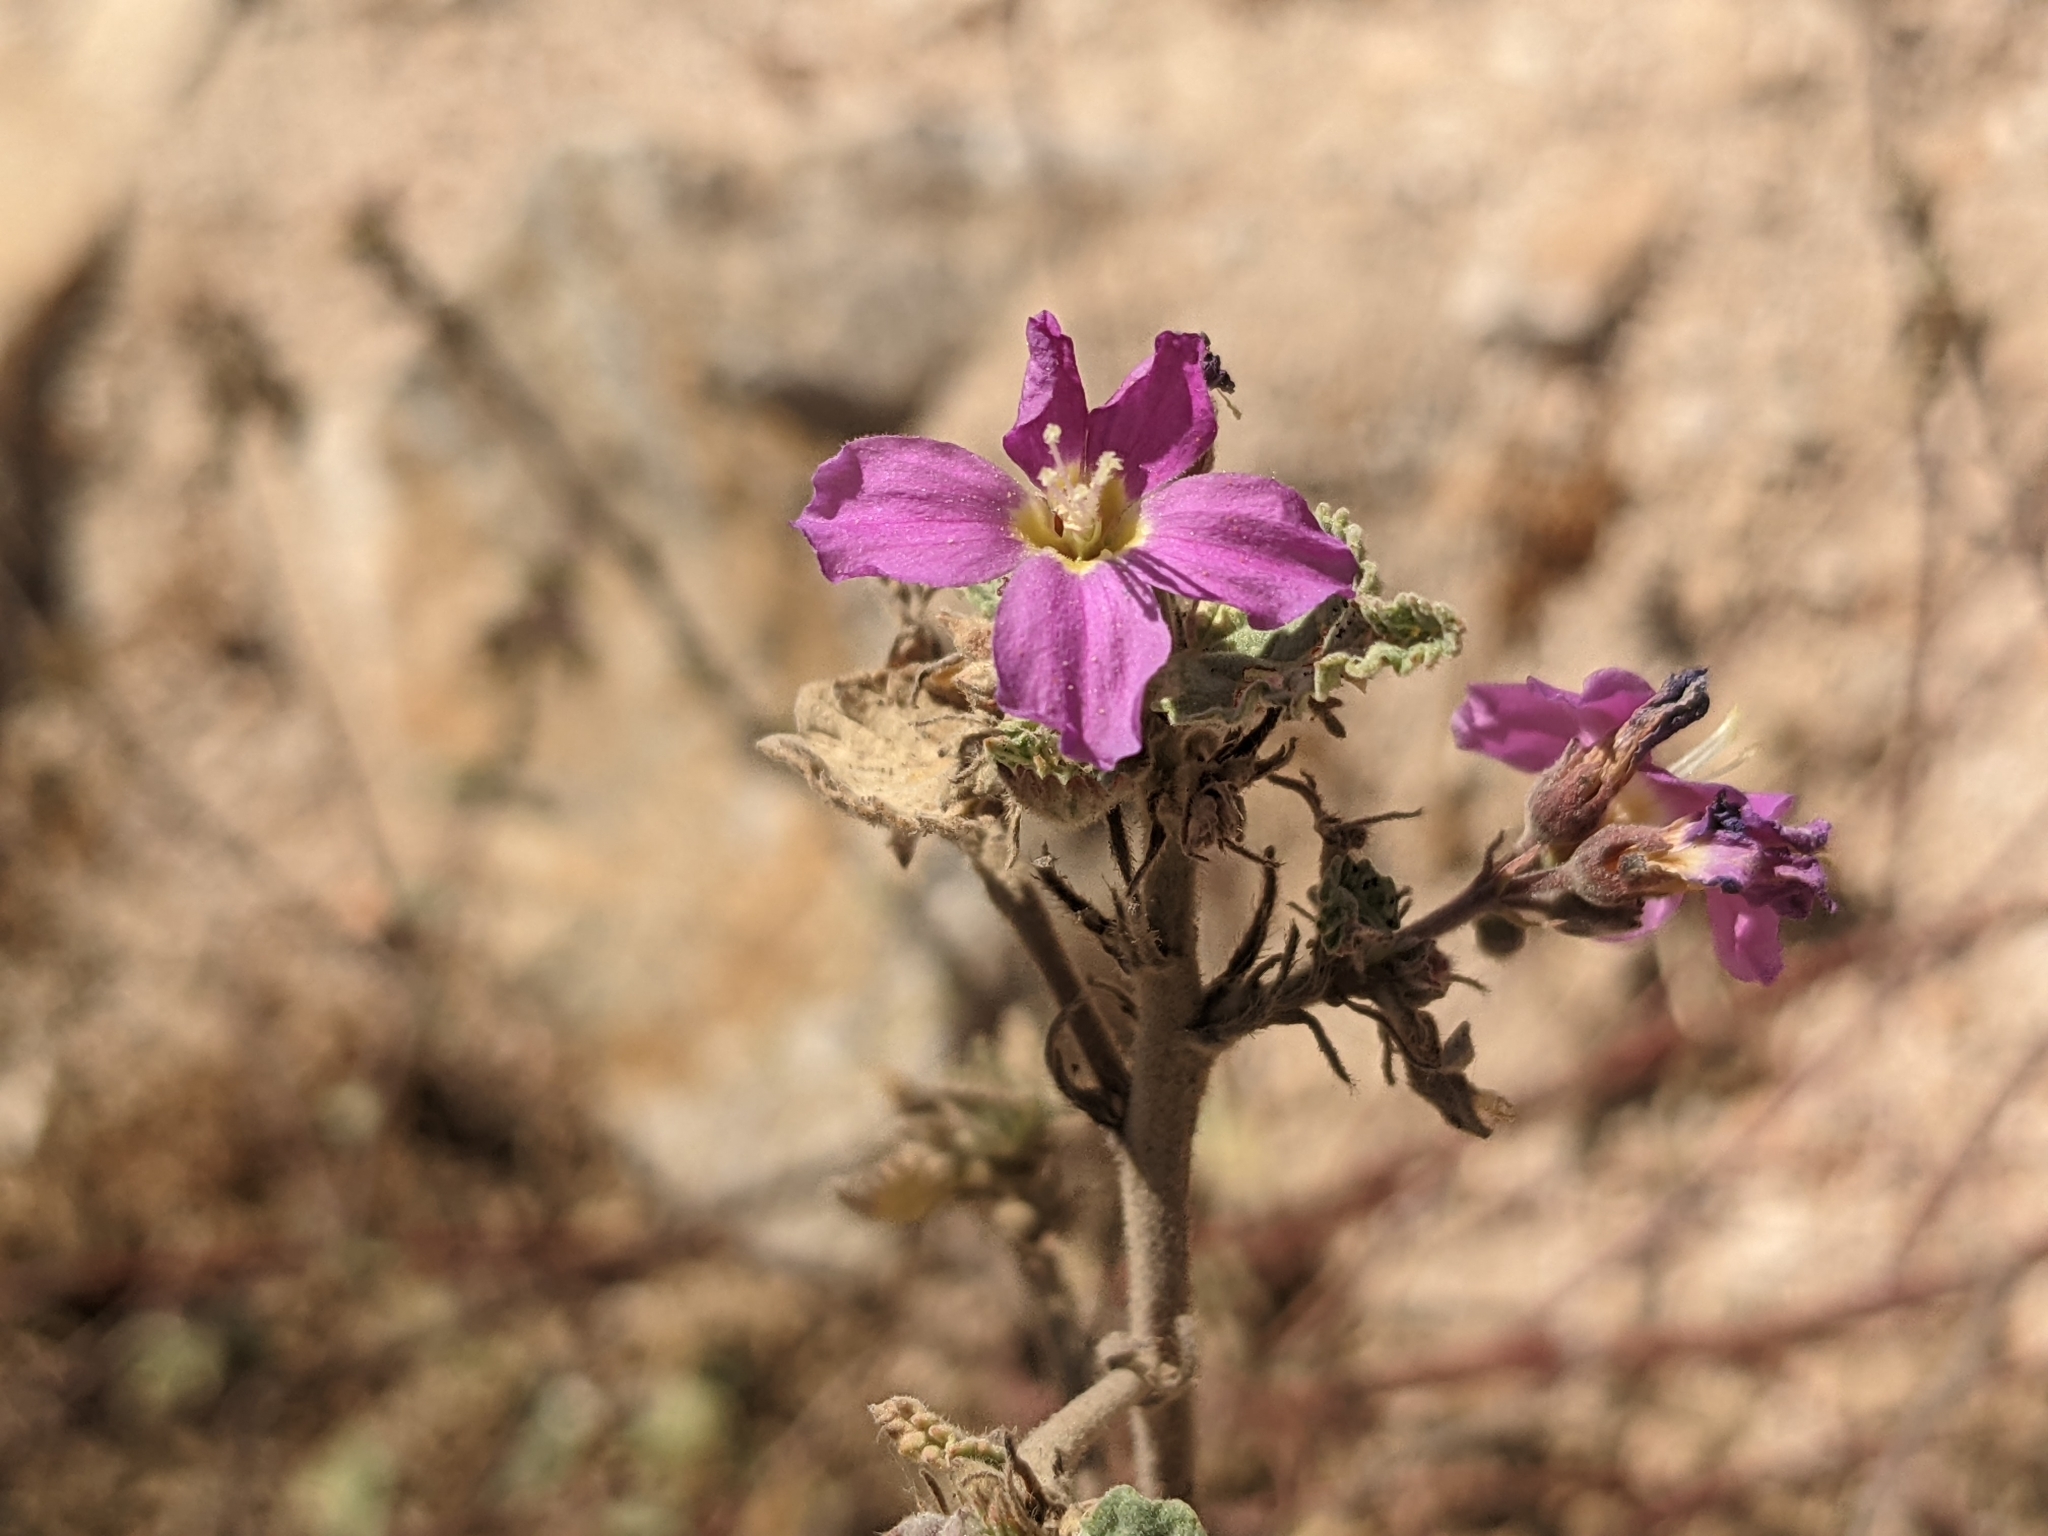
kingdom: Plantae
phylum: Tracheophyta
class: Magnoliopsida
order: Malvales
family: Malvaceae
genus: Melochia
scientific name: Melochia tomentosa
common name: Black torch
